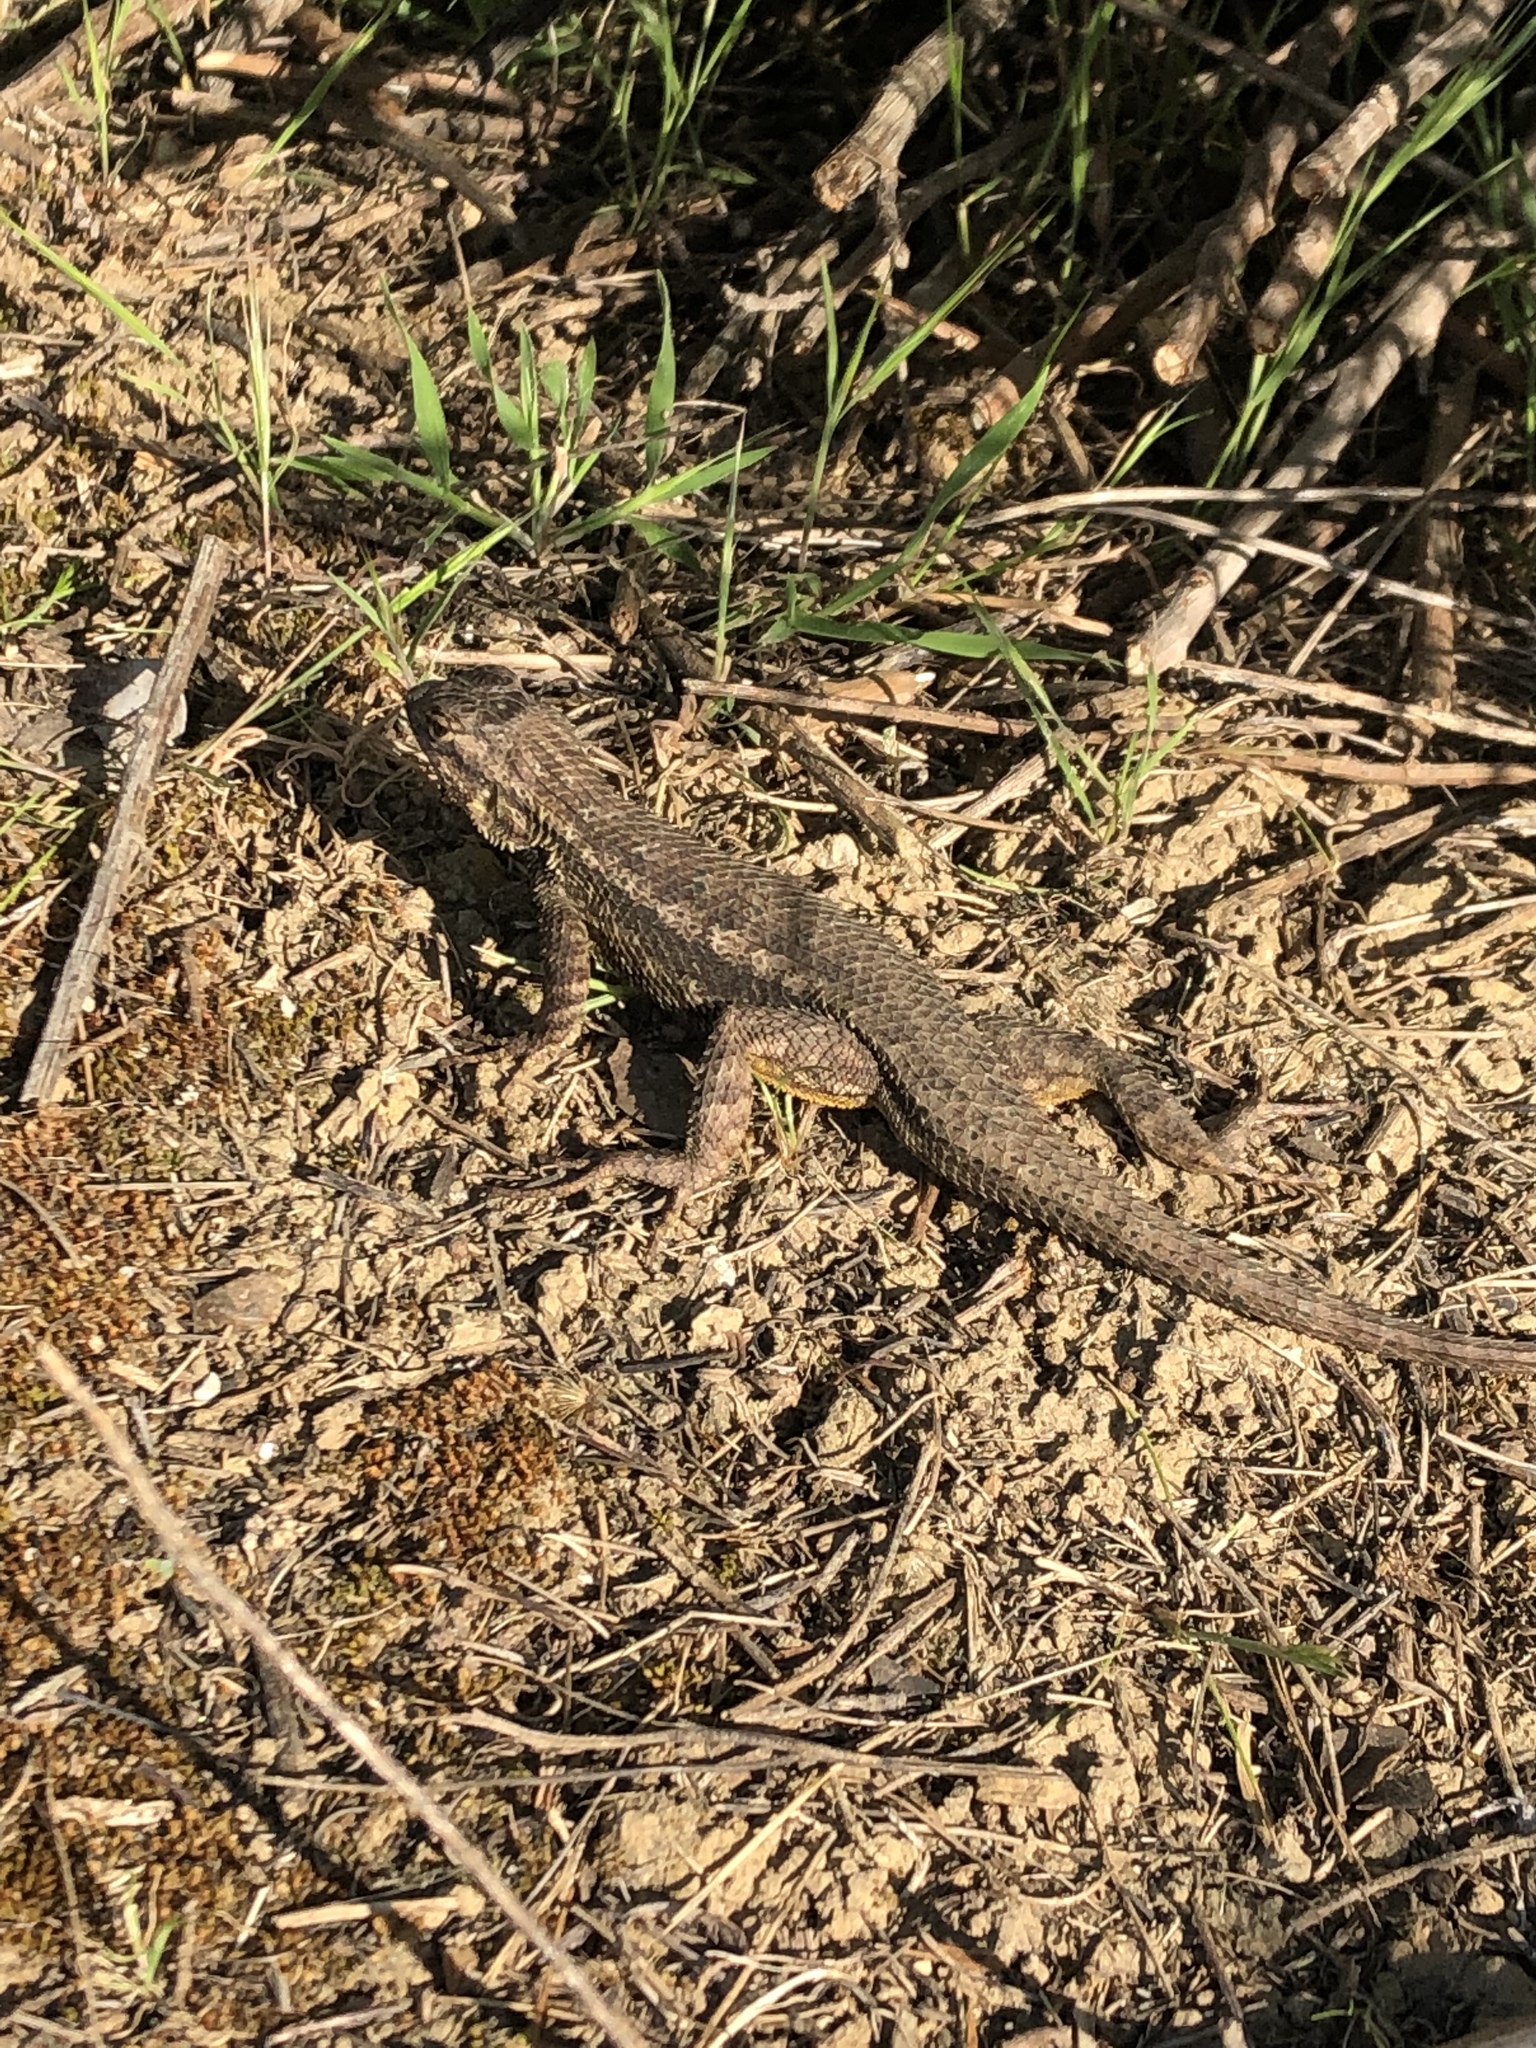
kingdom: Animalia
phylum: Chordata
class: Squamata
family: Phrynosomatidae
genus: Sceloporus
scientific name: Sceloporus occidentalis
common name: Western fence lizard
